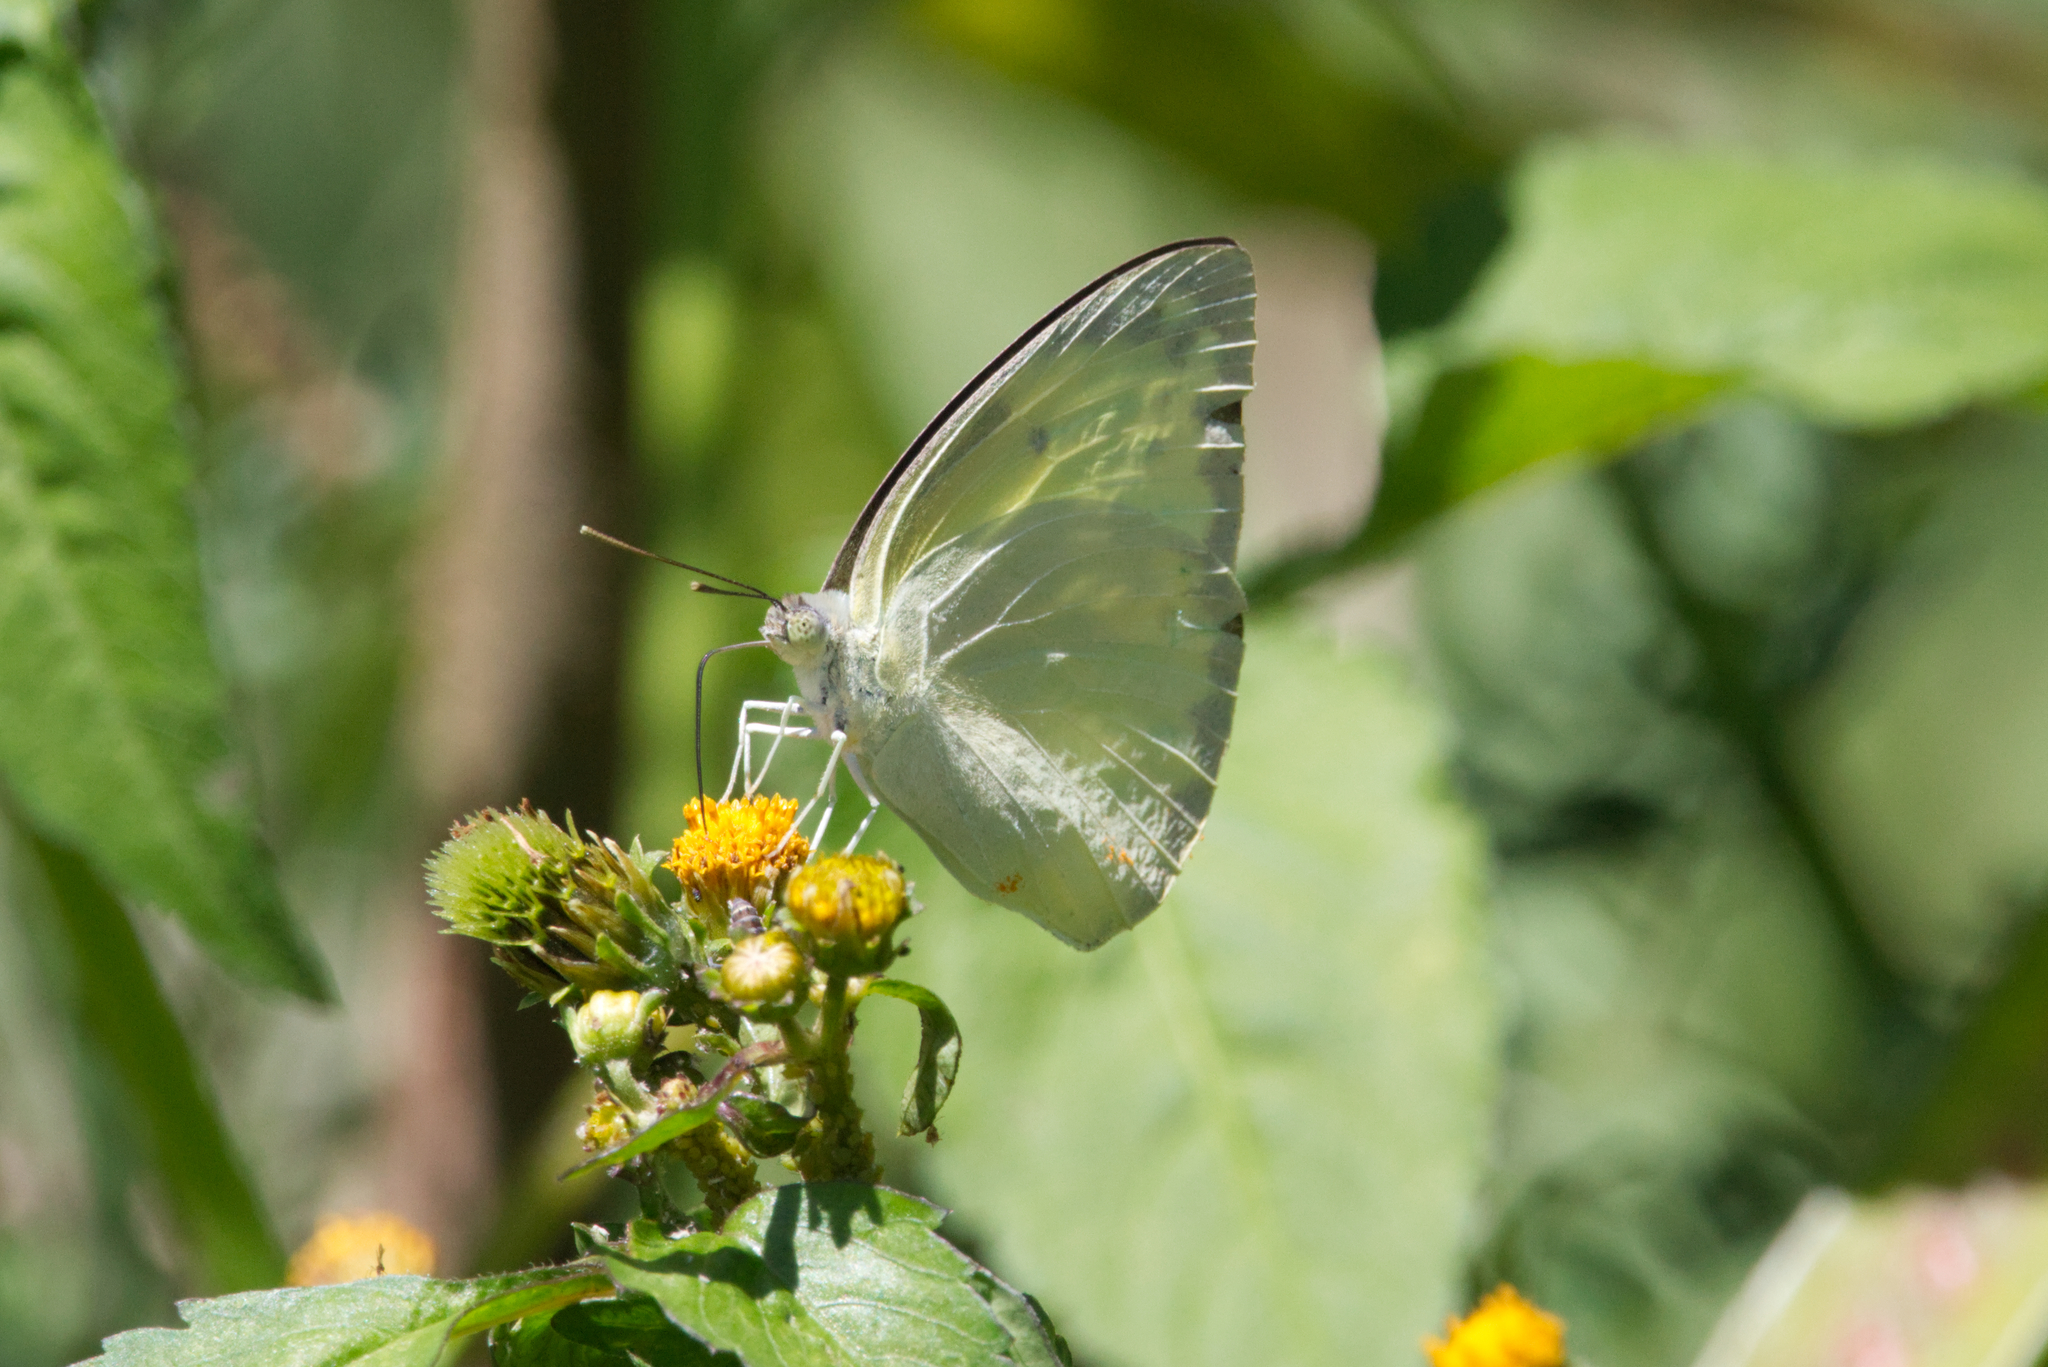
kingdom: Animalia
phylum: Arthropoda
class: Insecta
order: Lepidoptera
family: Pieridae
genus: Catopsilia
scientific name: Catopsilia pomona
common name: Common emigrant
